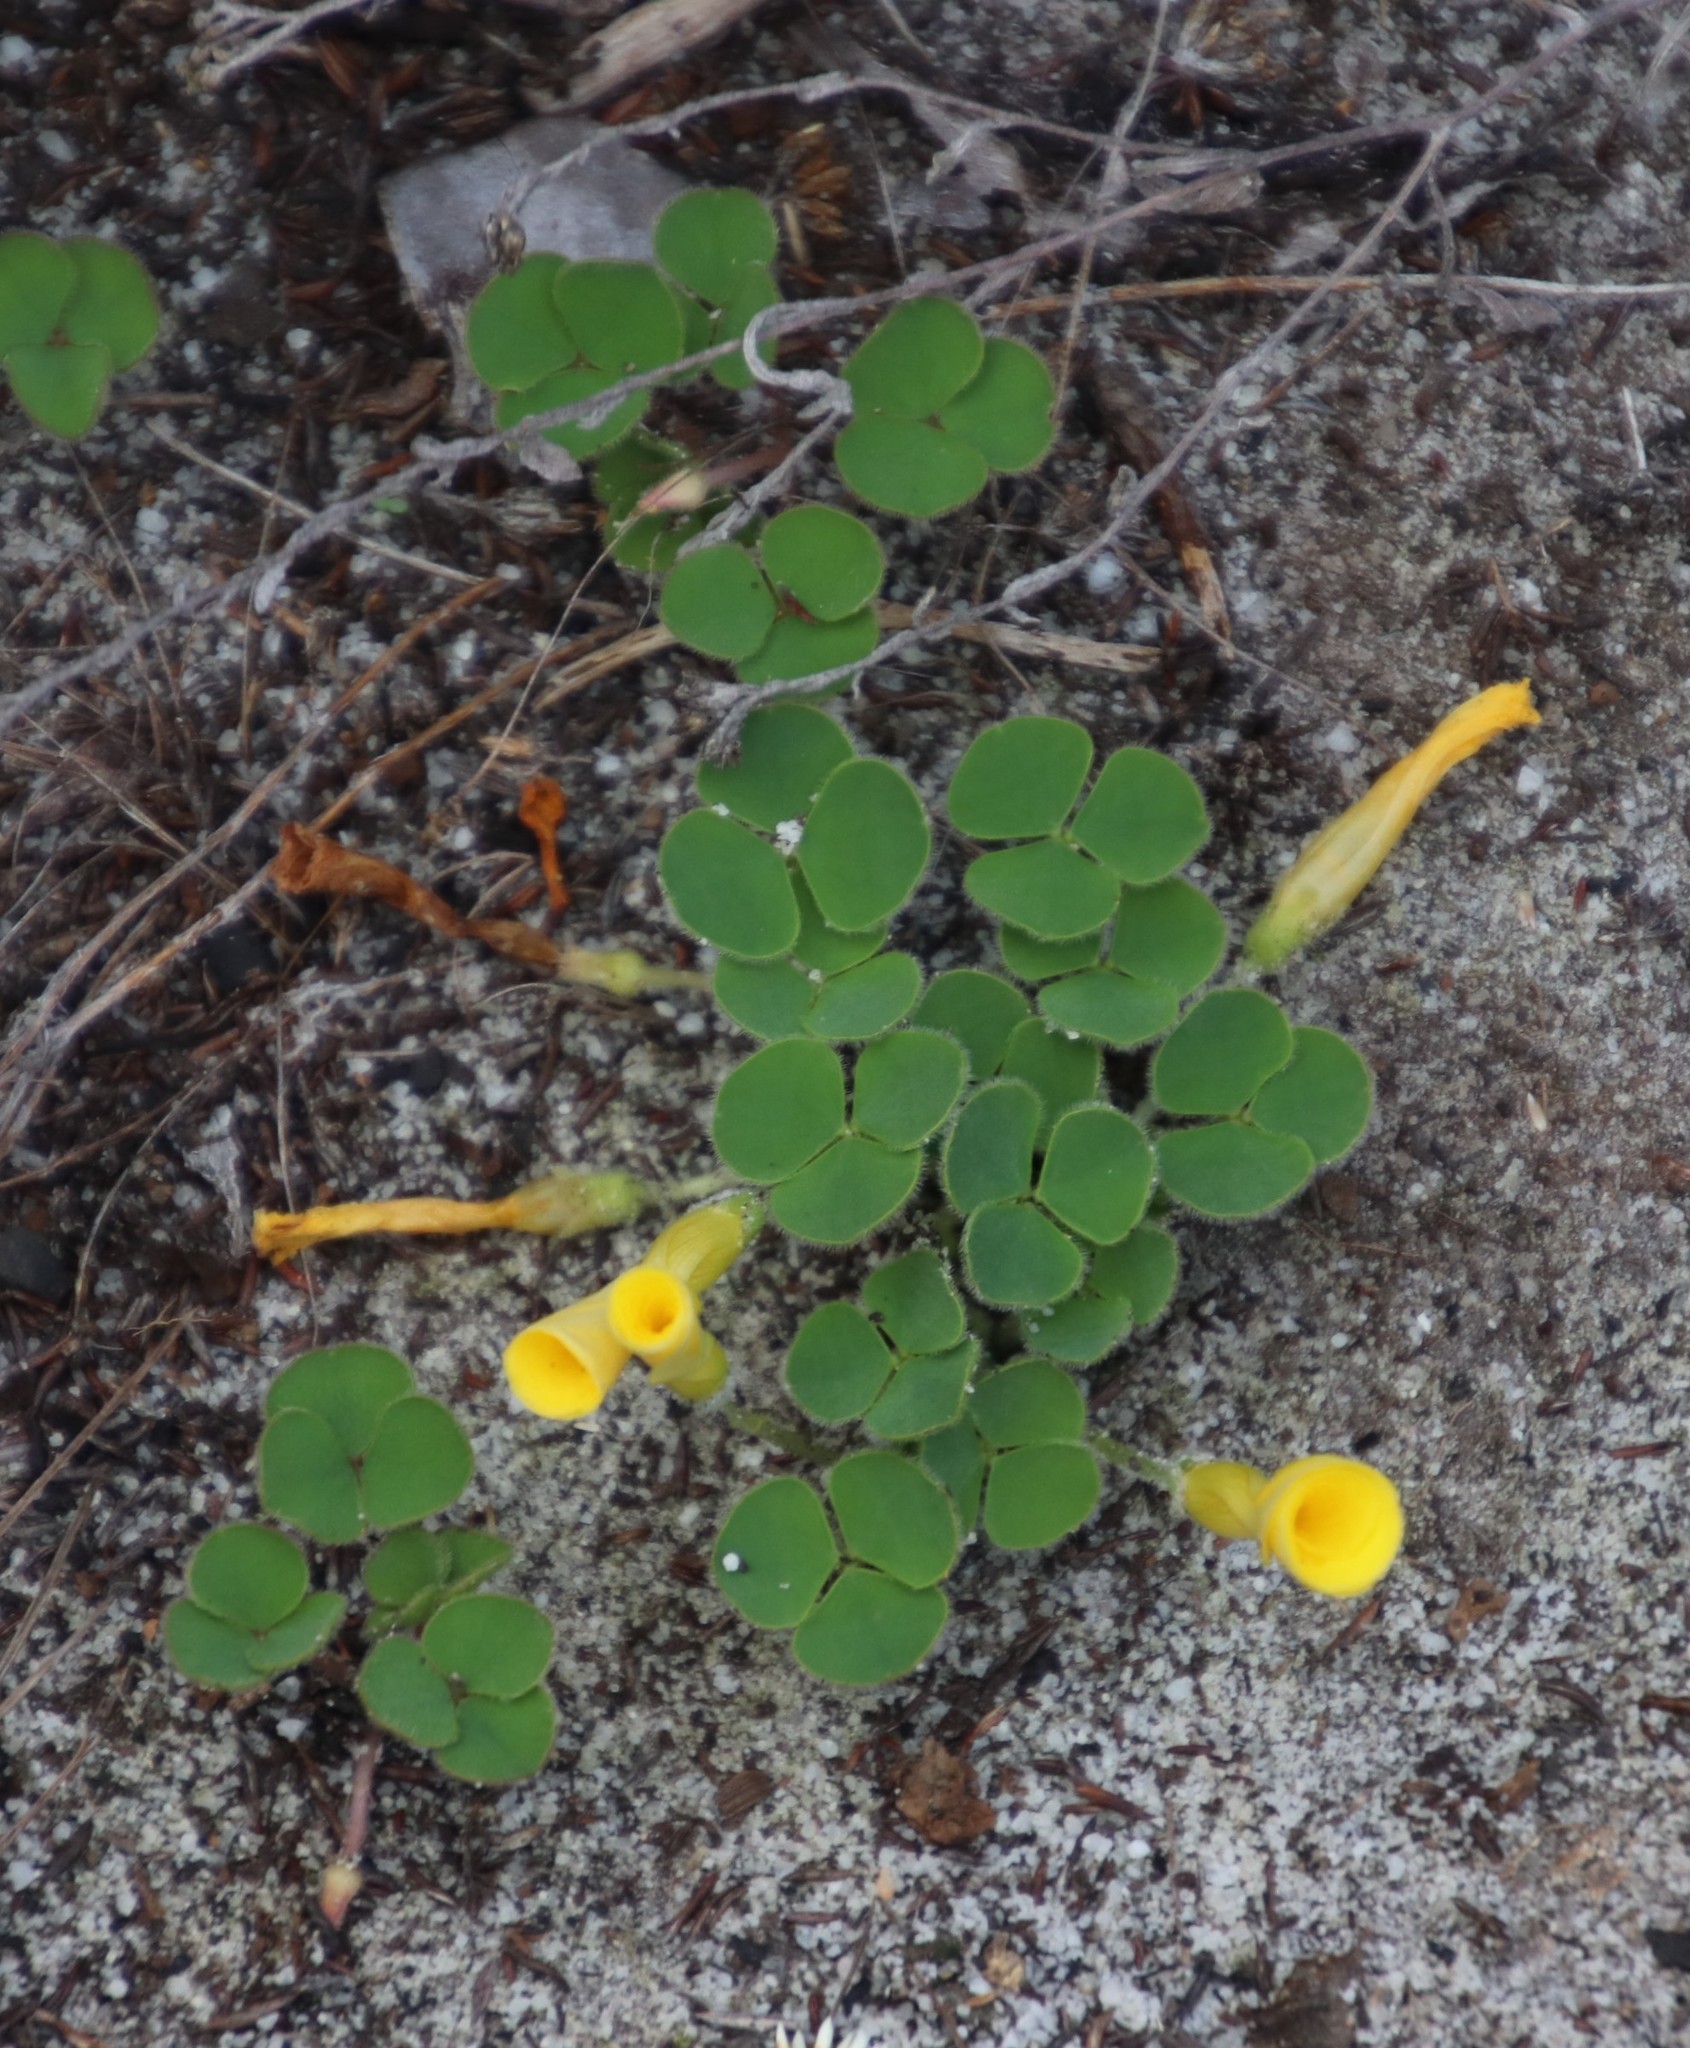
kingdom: Plantae
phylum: Tracheophyta
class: Magnoliopsida
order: Oxalidales
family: Oxalidaceae
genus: Oxalis
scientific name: Oxalis luteola
